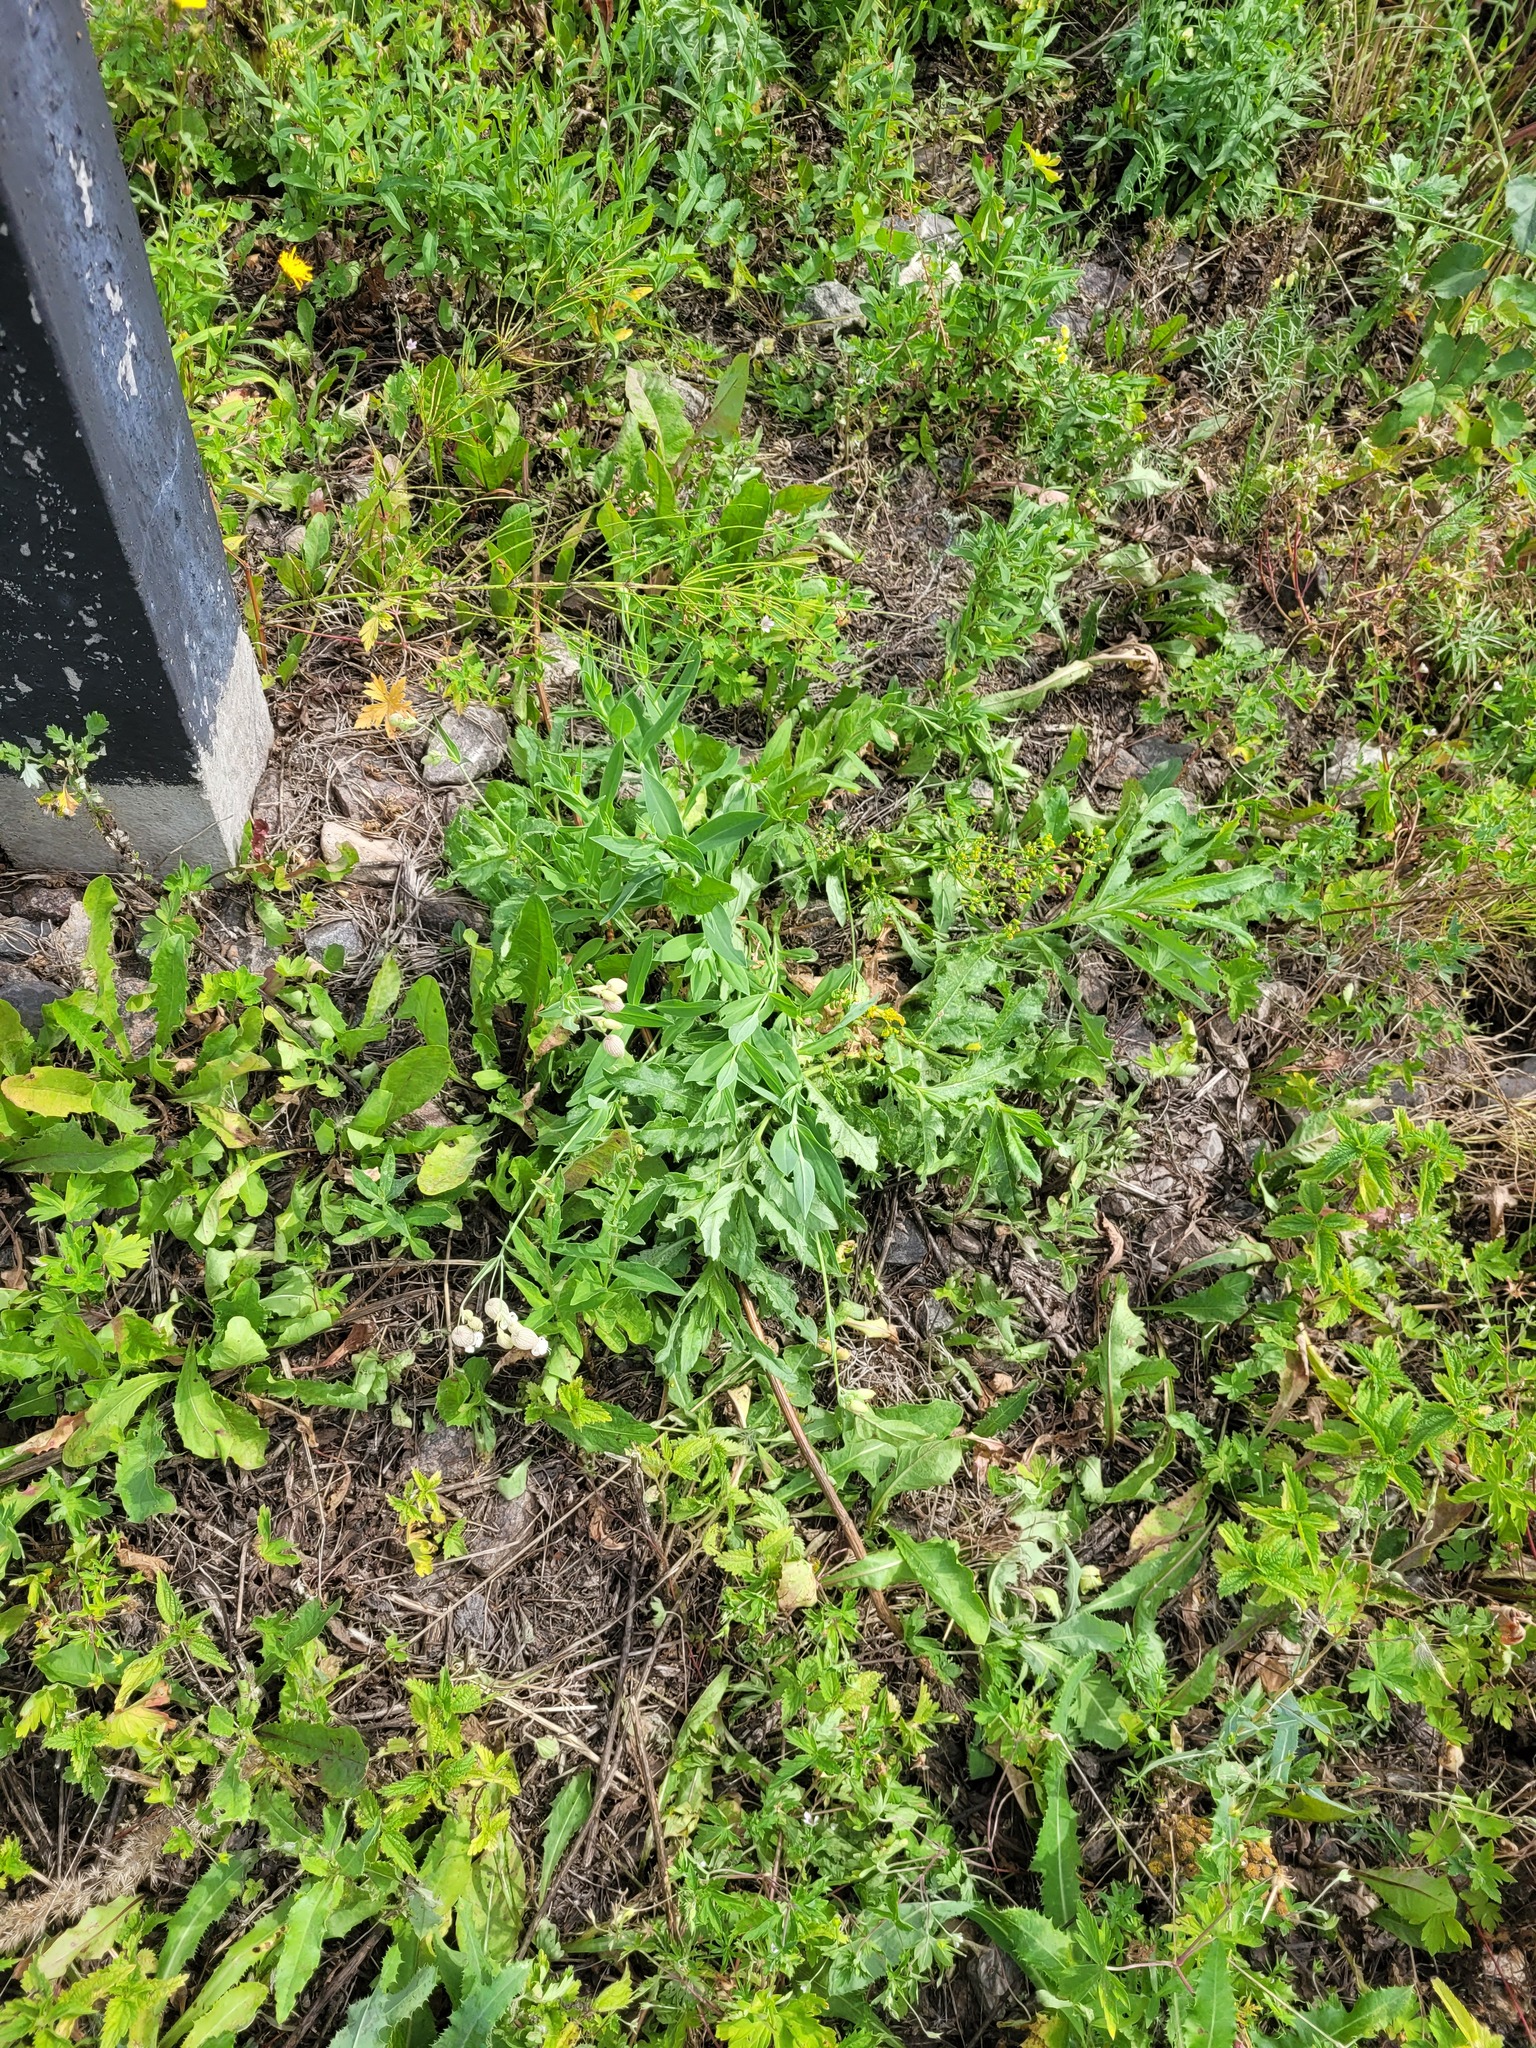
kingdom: Plantae
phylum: Tracheophyta
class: Magnoliopsida
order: Caryophyllales
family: Caryophyllaceae
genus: Silene
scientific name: Silene vulgaris
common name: Bladder campion
